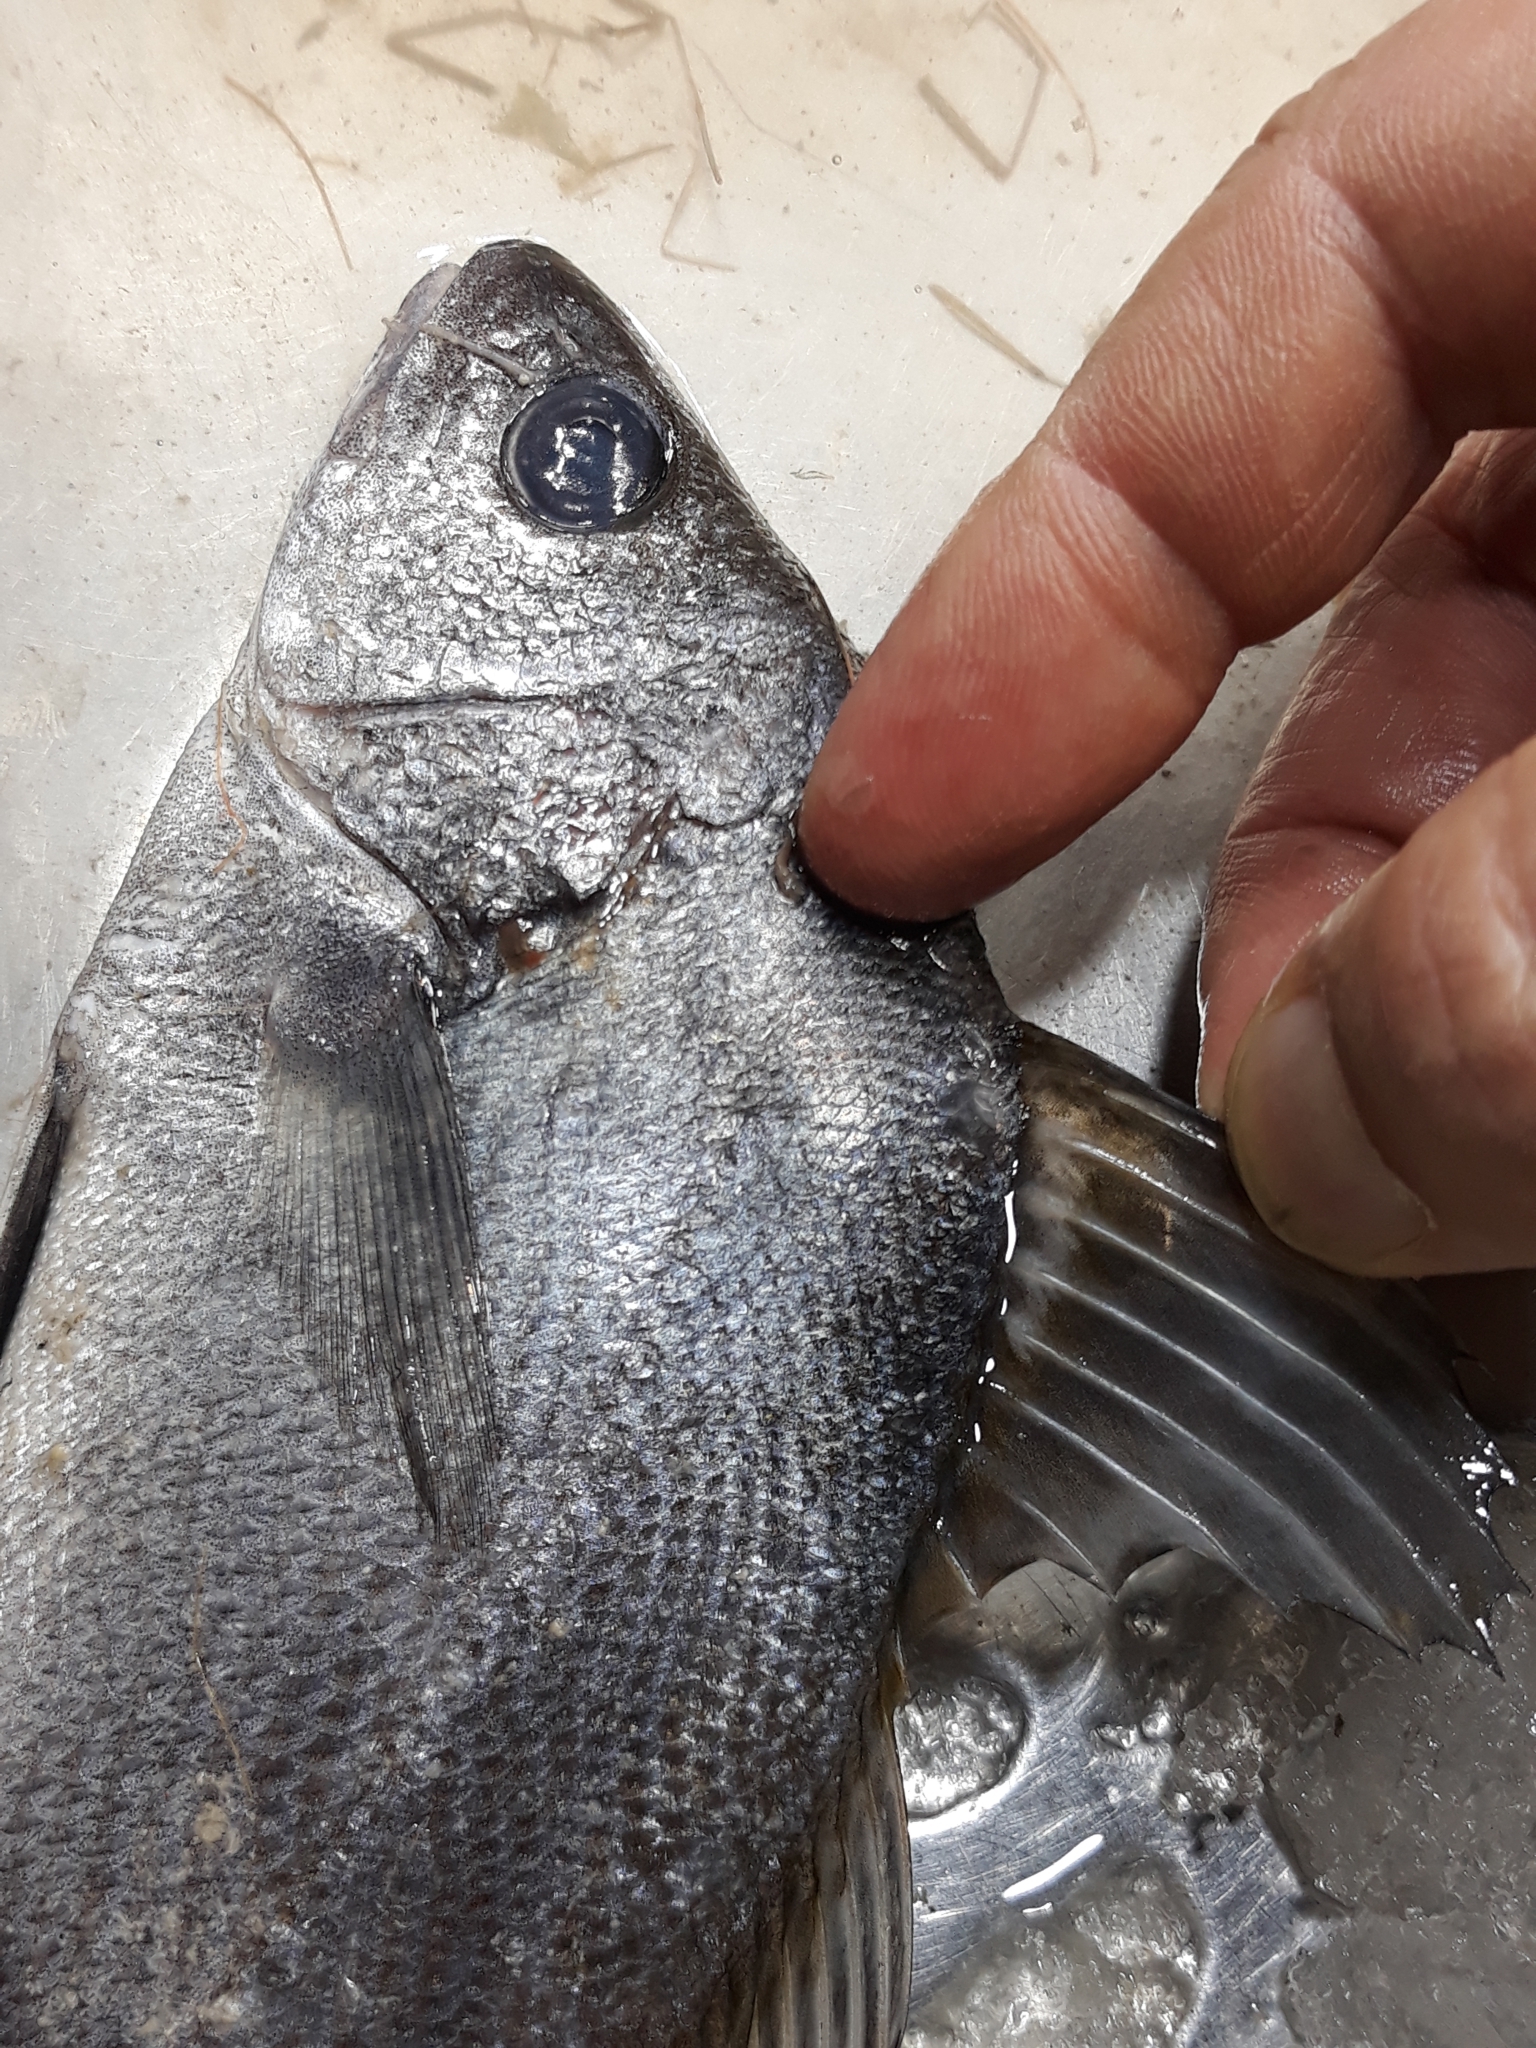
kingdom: Animalia
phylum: Chordata
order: Perciformes
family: Sciaenidae
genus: Sciaena
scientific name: Sciaena umbra
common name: Brown meagre
